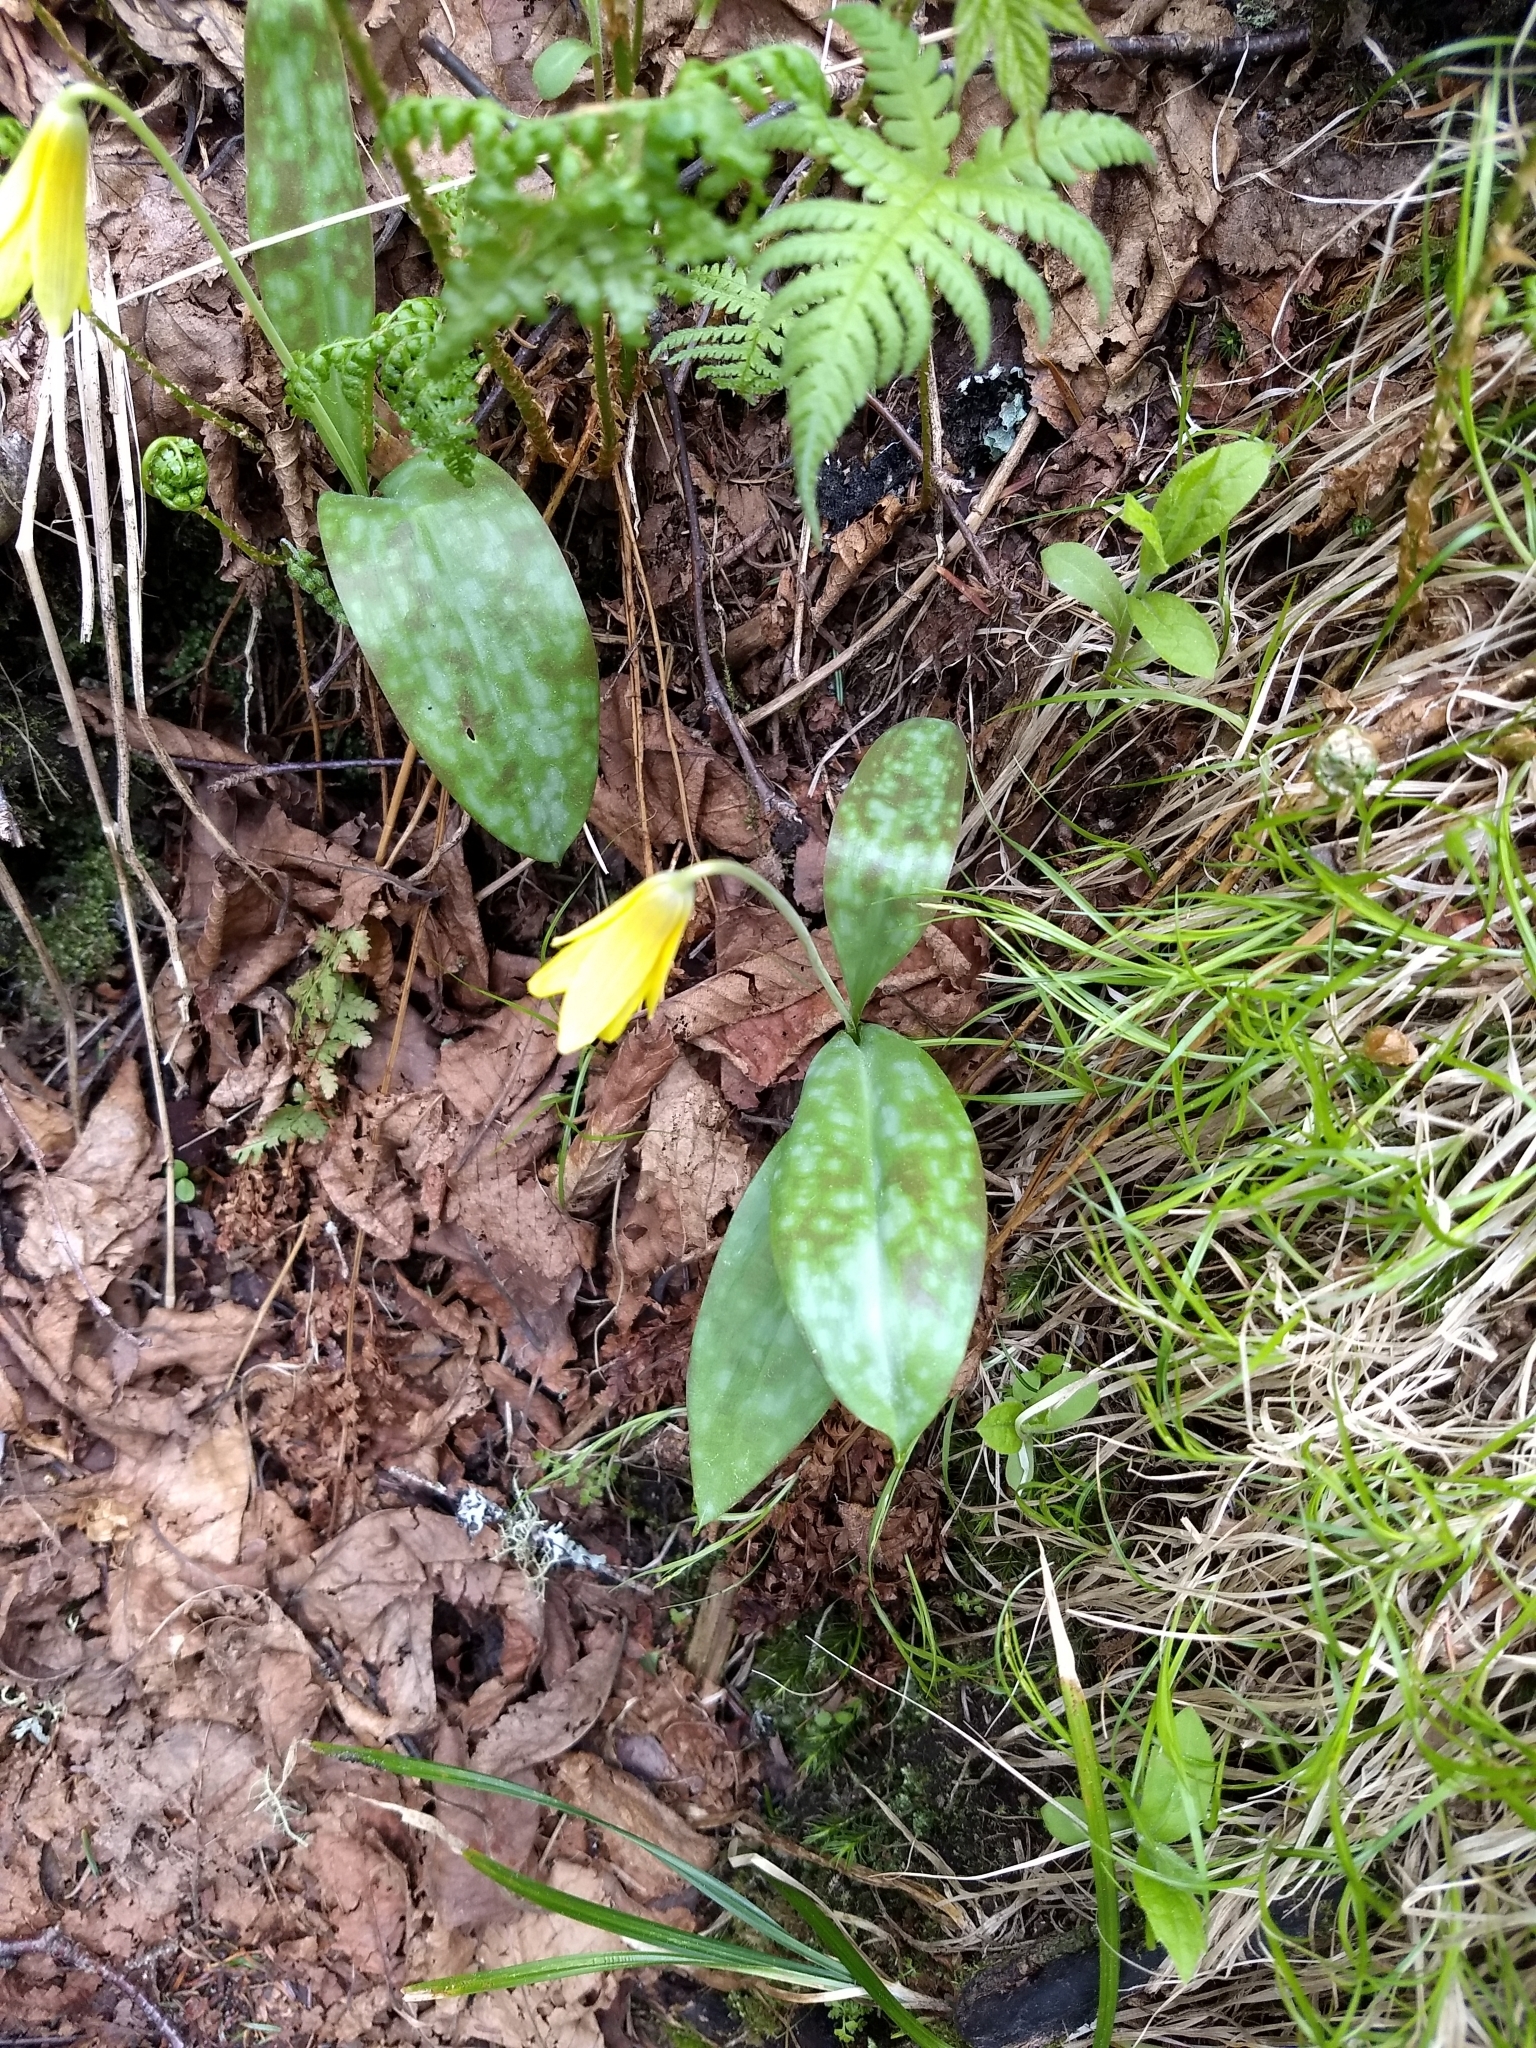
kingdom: Plantae
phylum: Tracheophyta
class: Liliopsida
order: Liliales
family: Liliaceae
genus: Erythronium
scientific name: Erythronium americanum
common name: Yellow adder's-tongue
